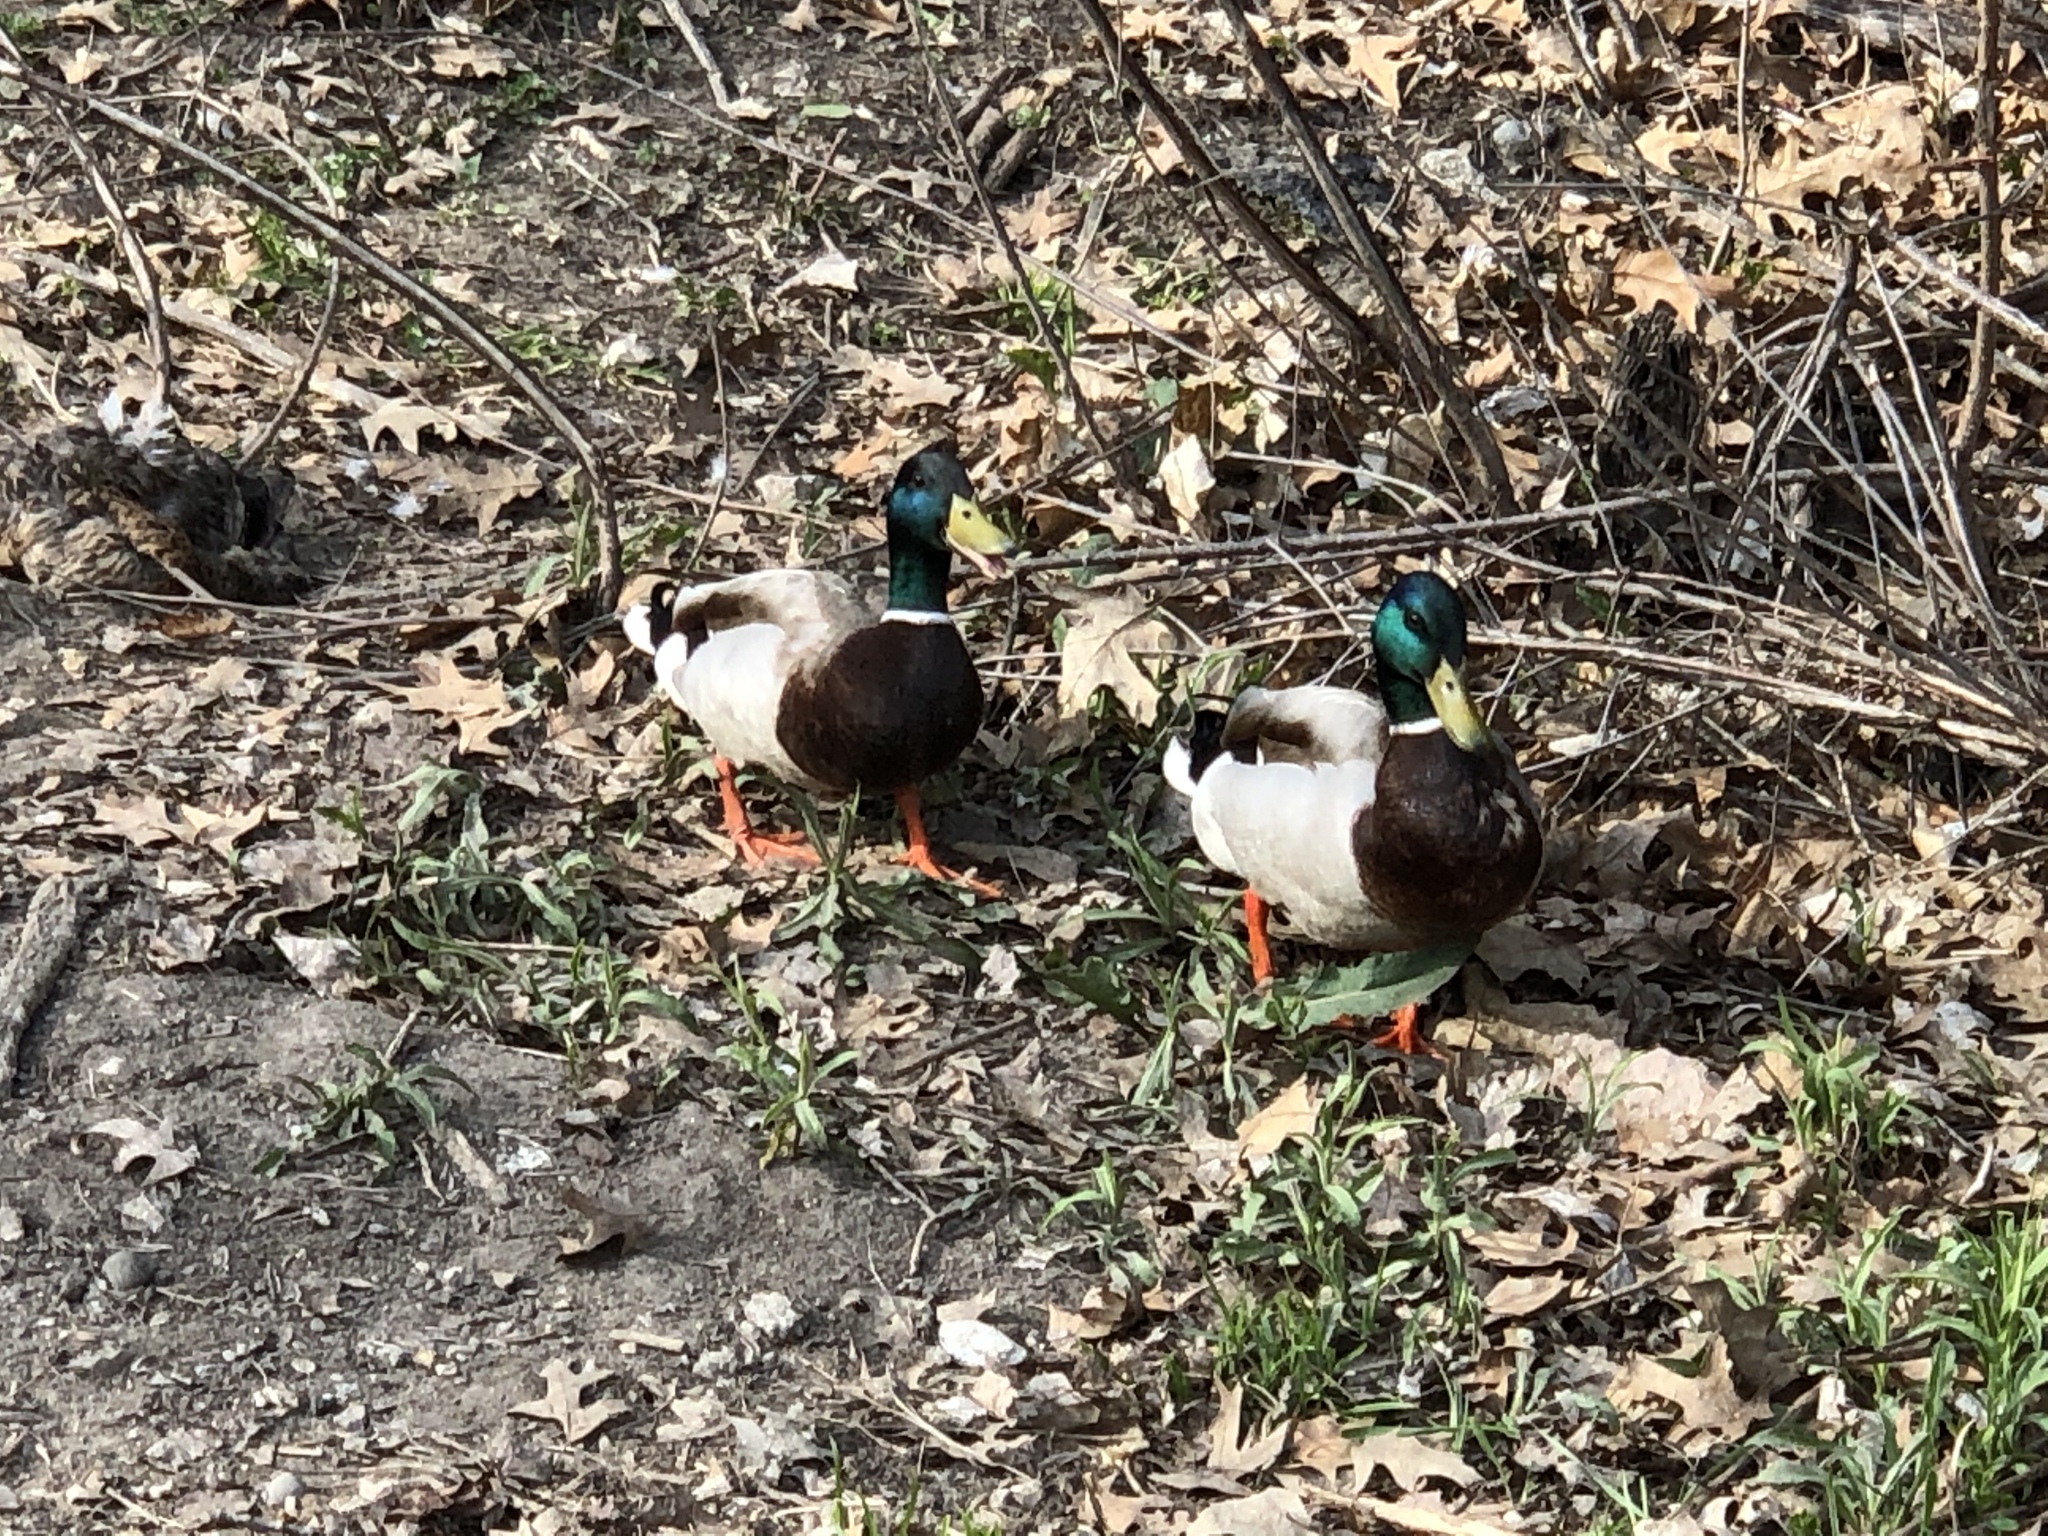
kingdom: Animalia
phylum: Chordata
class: Aves
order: Anseriformes
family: Anatidae
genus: Anas
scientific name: Anas platyrhynchos
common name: Mallard
